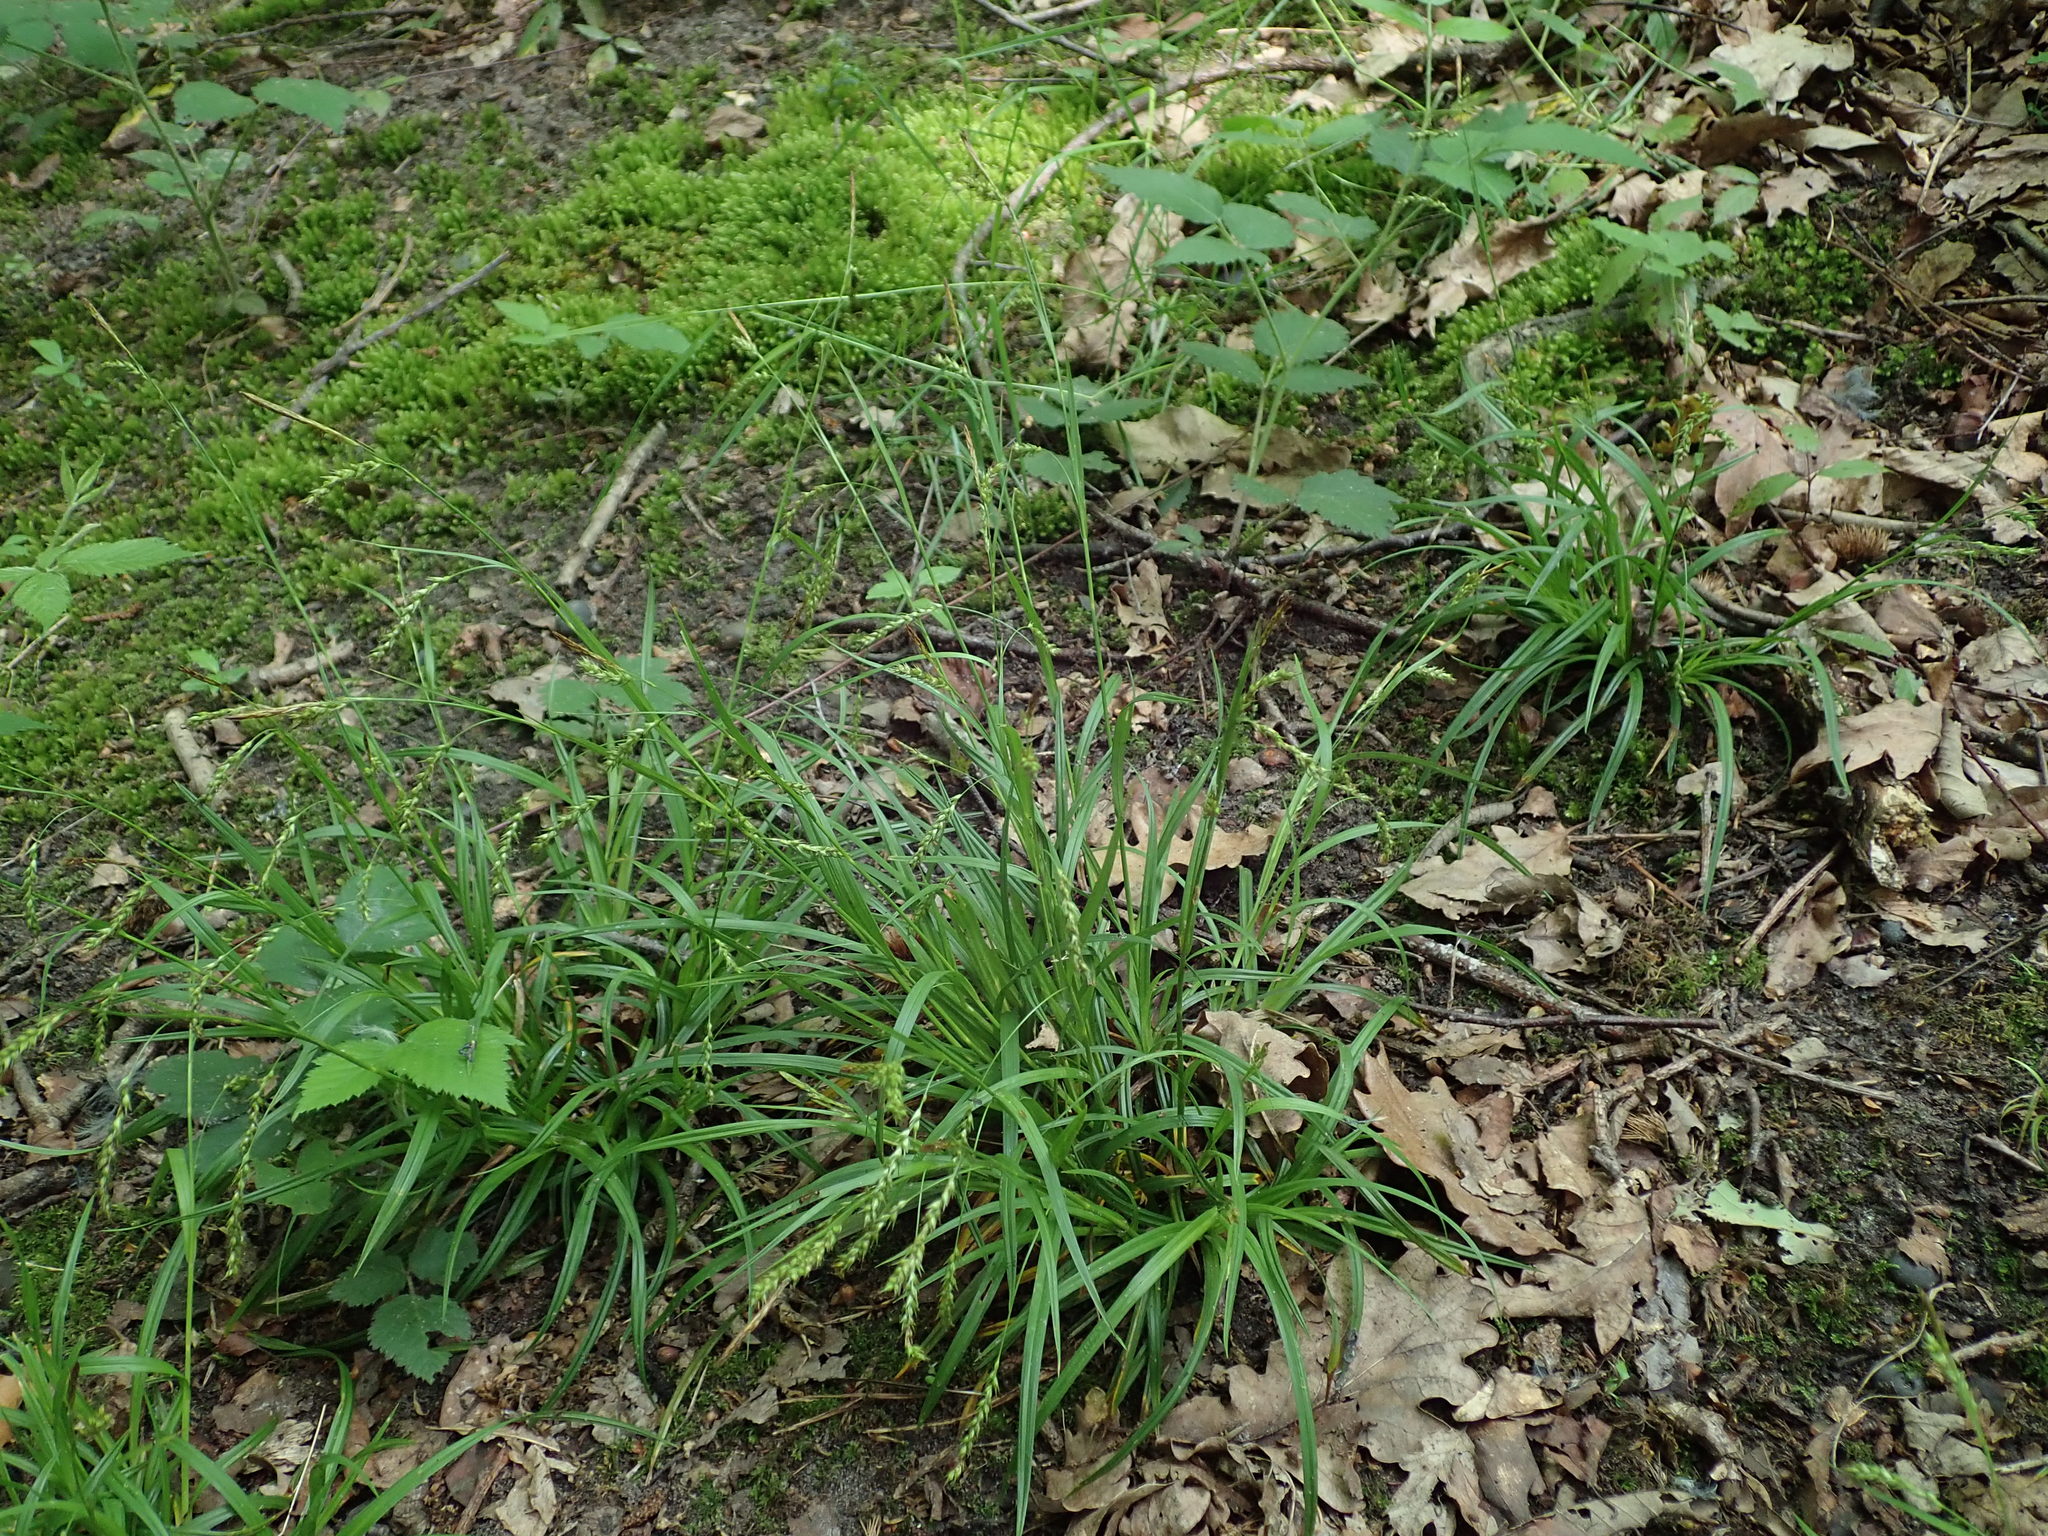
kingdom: Plantae
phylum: Tracheophyta
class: Liliopsida
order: Poales
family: Cyperaceae
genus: Carex
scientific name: Carex sylvatica
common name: Wood-sedge
